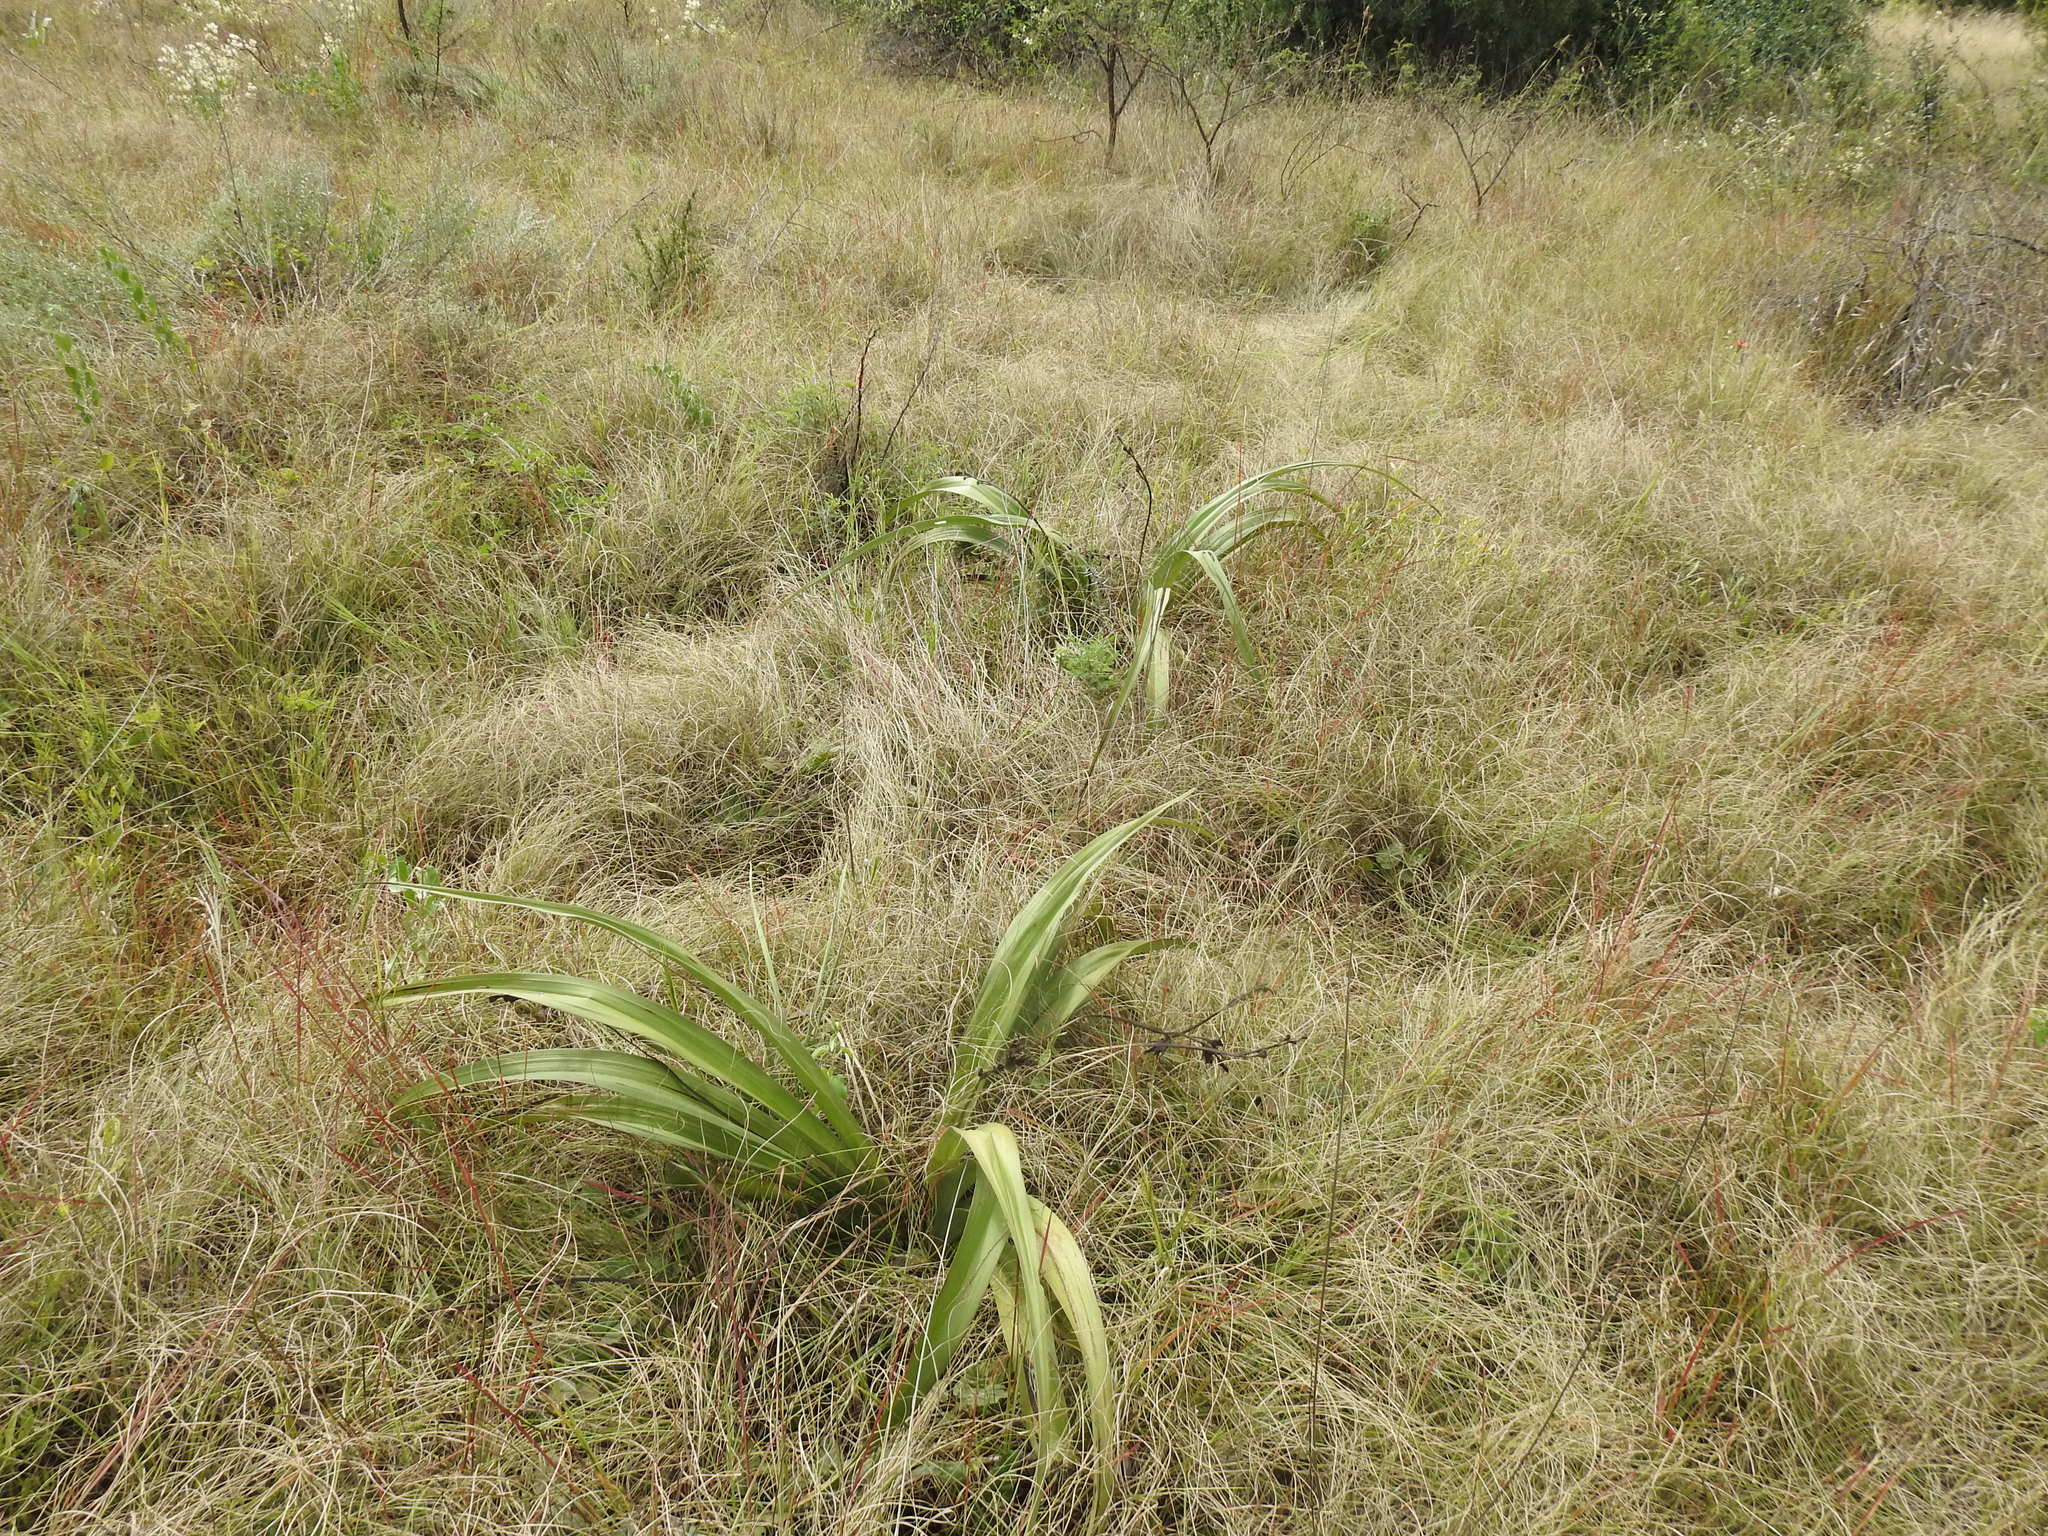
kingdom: Plantae
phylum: Tracheophyta
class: Liliopsida
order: Asparagales
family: Hypoxidaceae
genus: Hypoxis
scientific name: Hypoxis hemerocallidea
